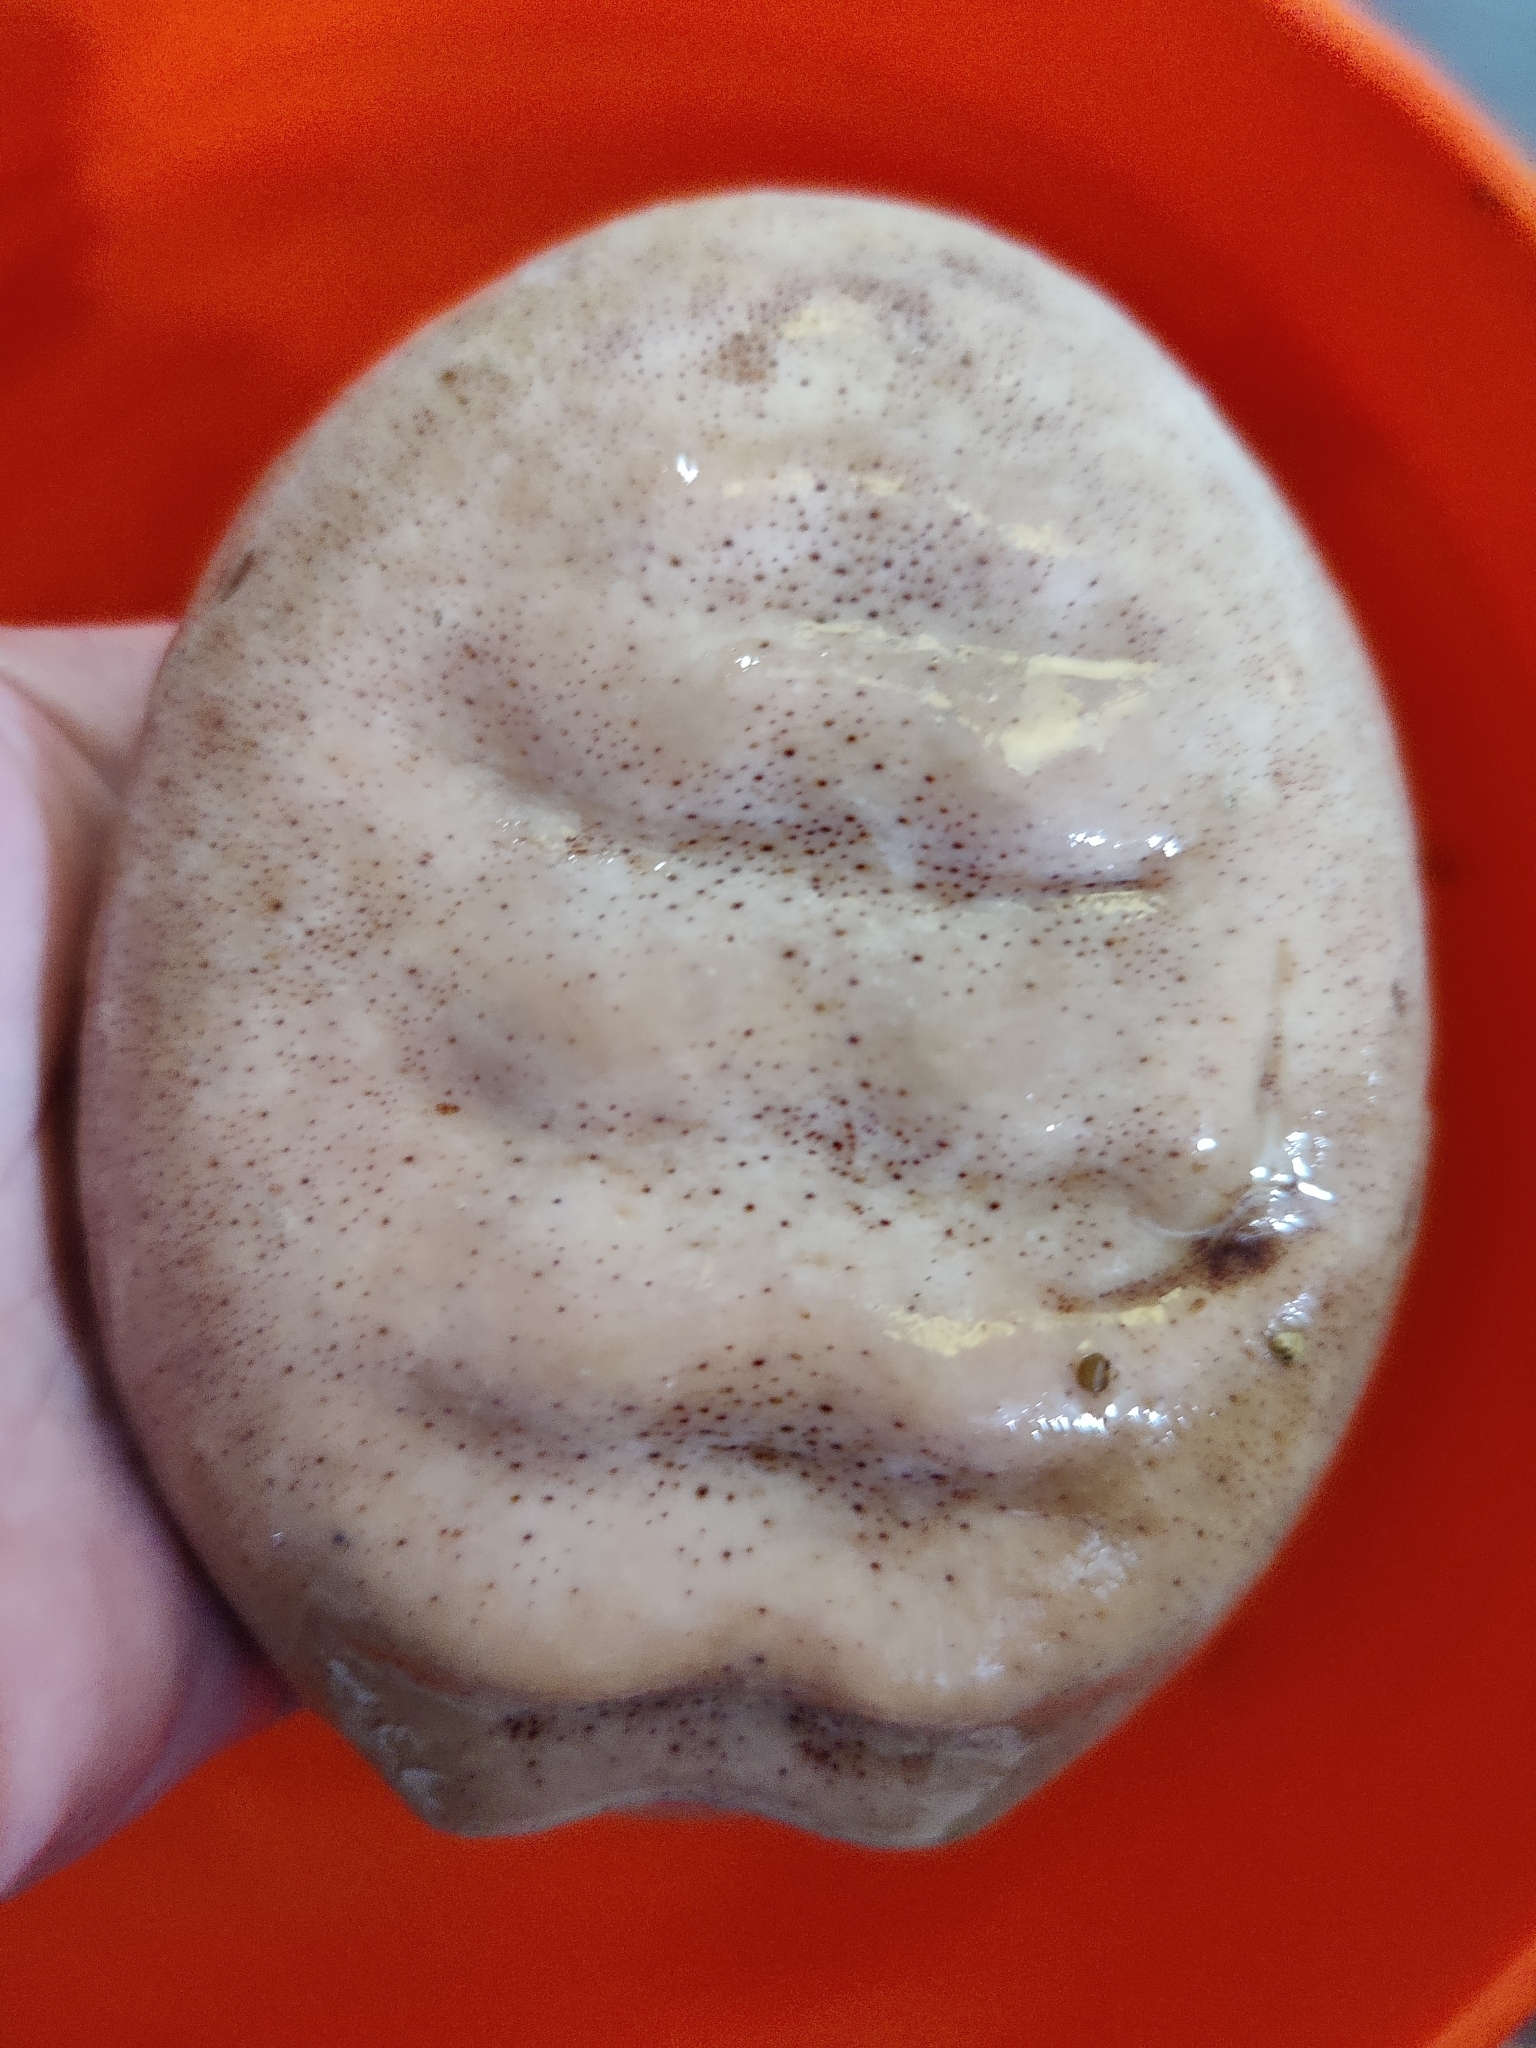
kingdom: Animalia
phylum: Mollusca
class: Polyplacophora
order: Chitonida
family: Acanthochitonidae
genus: Cryptochiton
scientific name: Cryptochiton stelleri
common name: Giant pacific chiton
